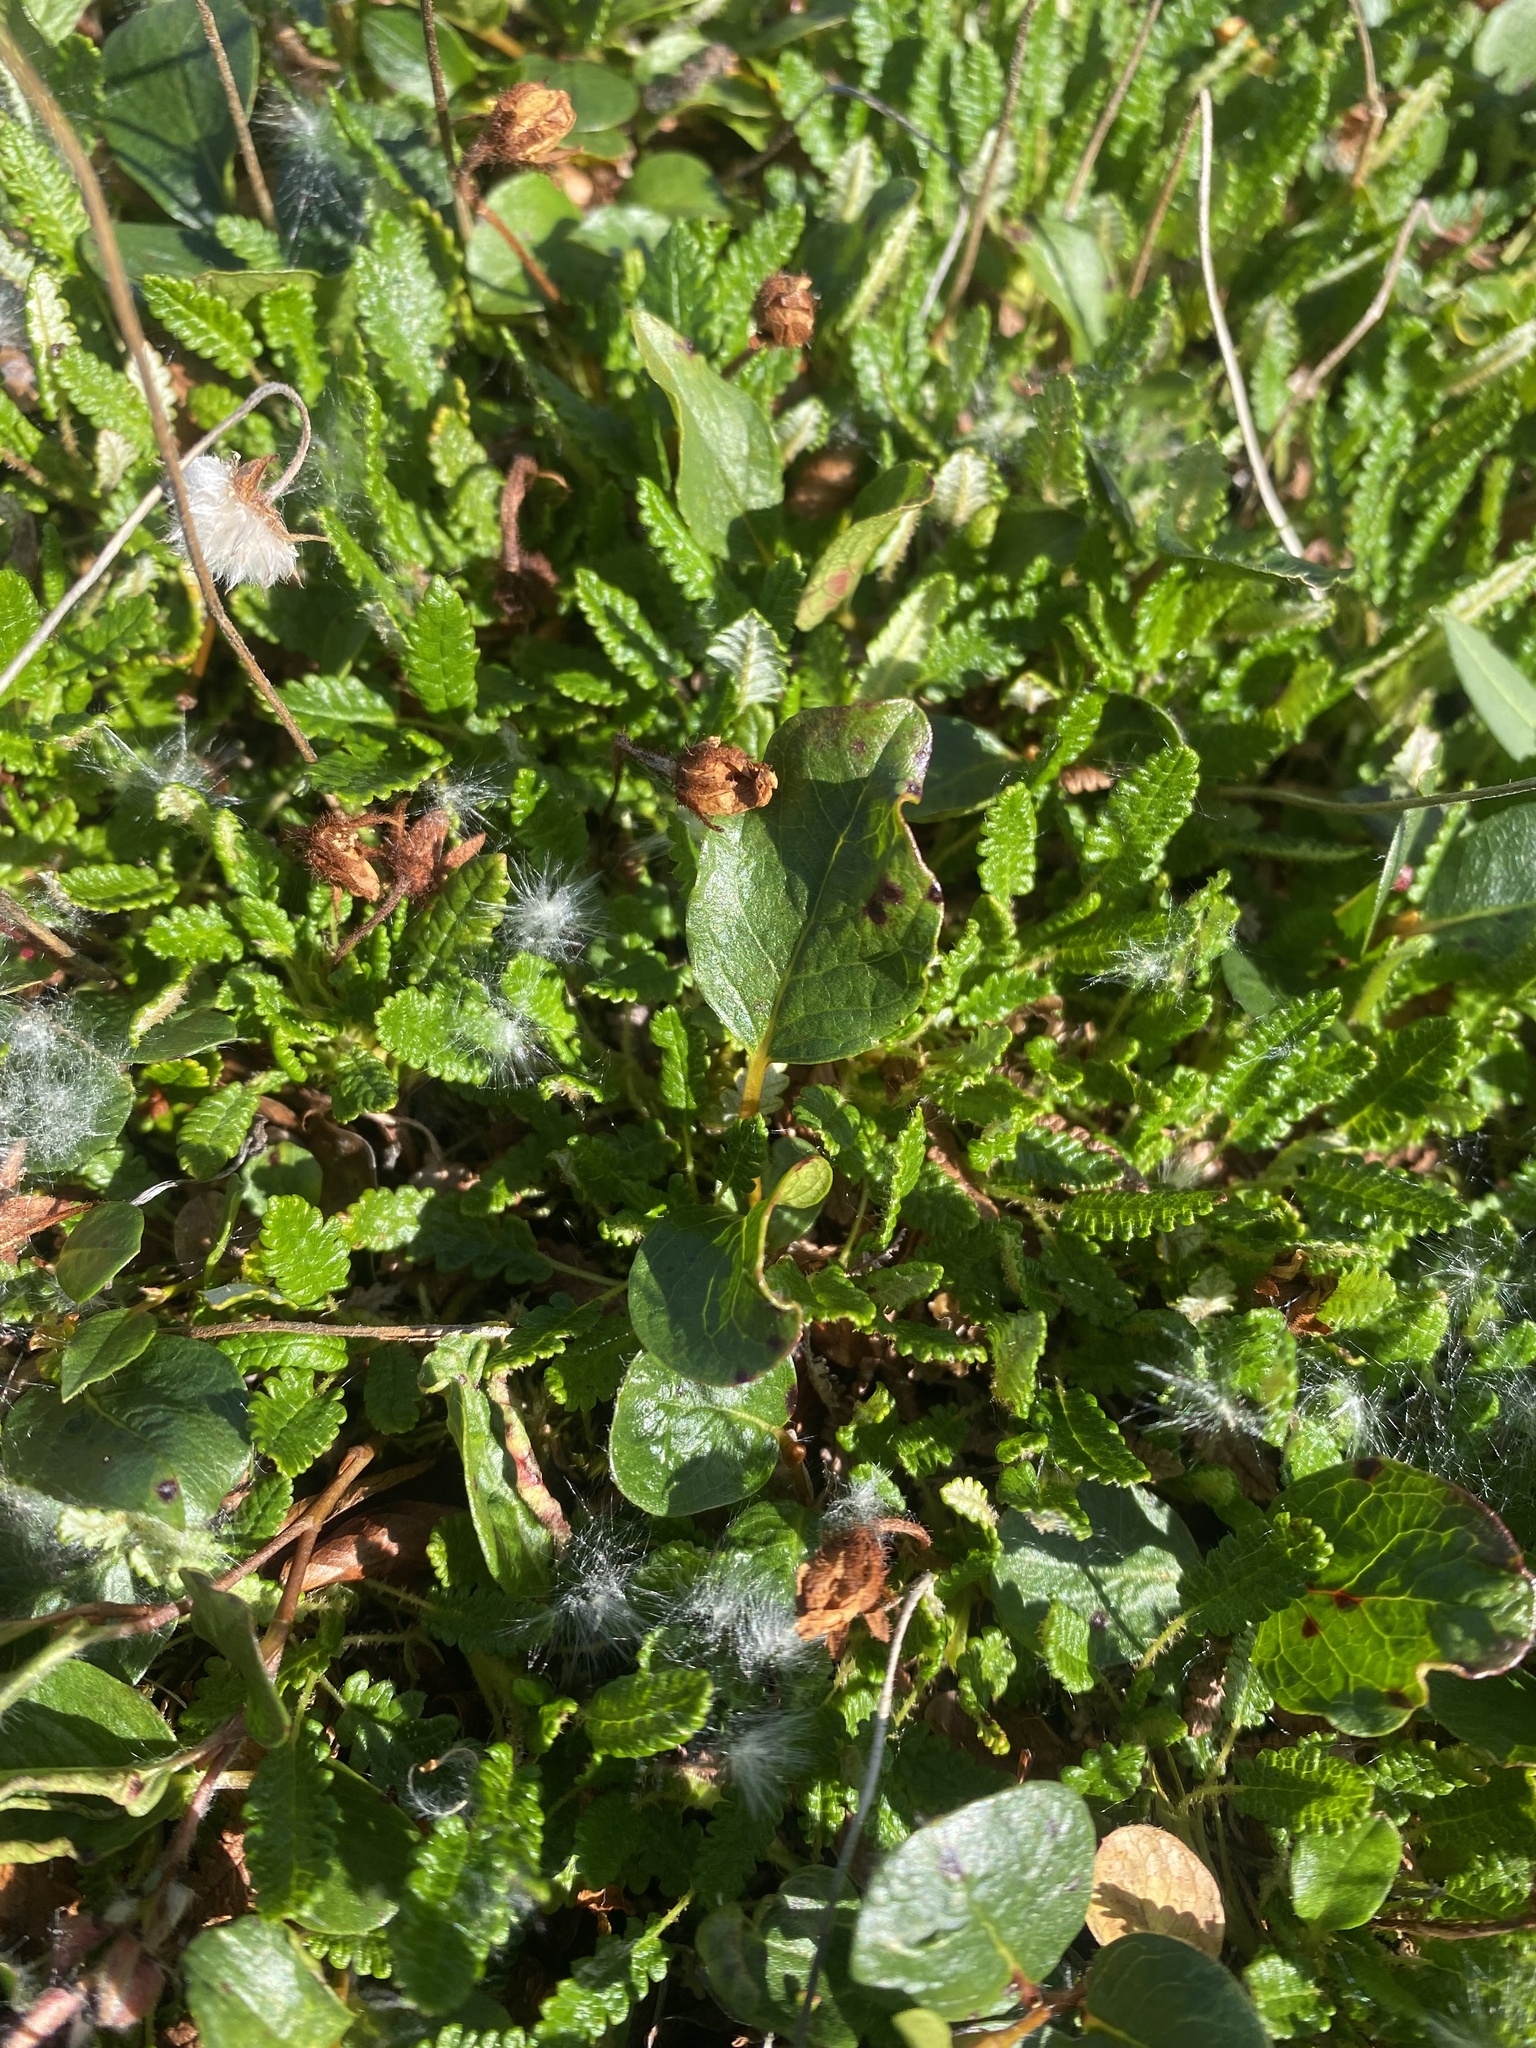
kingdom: Plantae
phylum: Tracheophyta
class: Magnoliopsida
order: Malpighiales
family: Salicaceae
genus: Salix
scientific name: Salix polaris
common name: Polar willow
